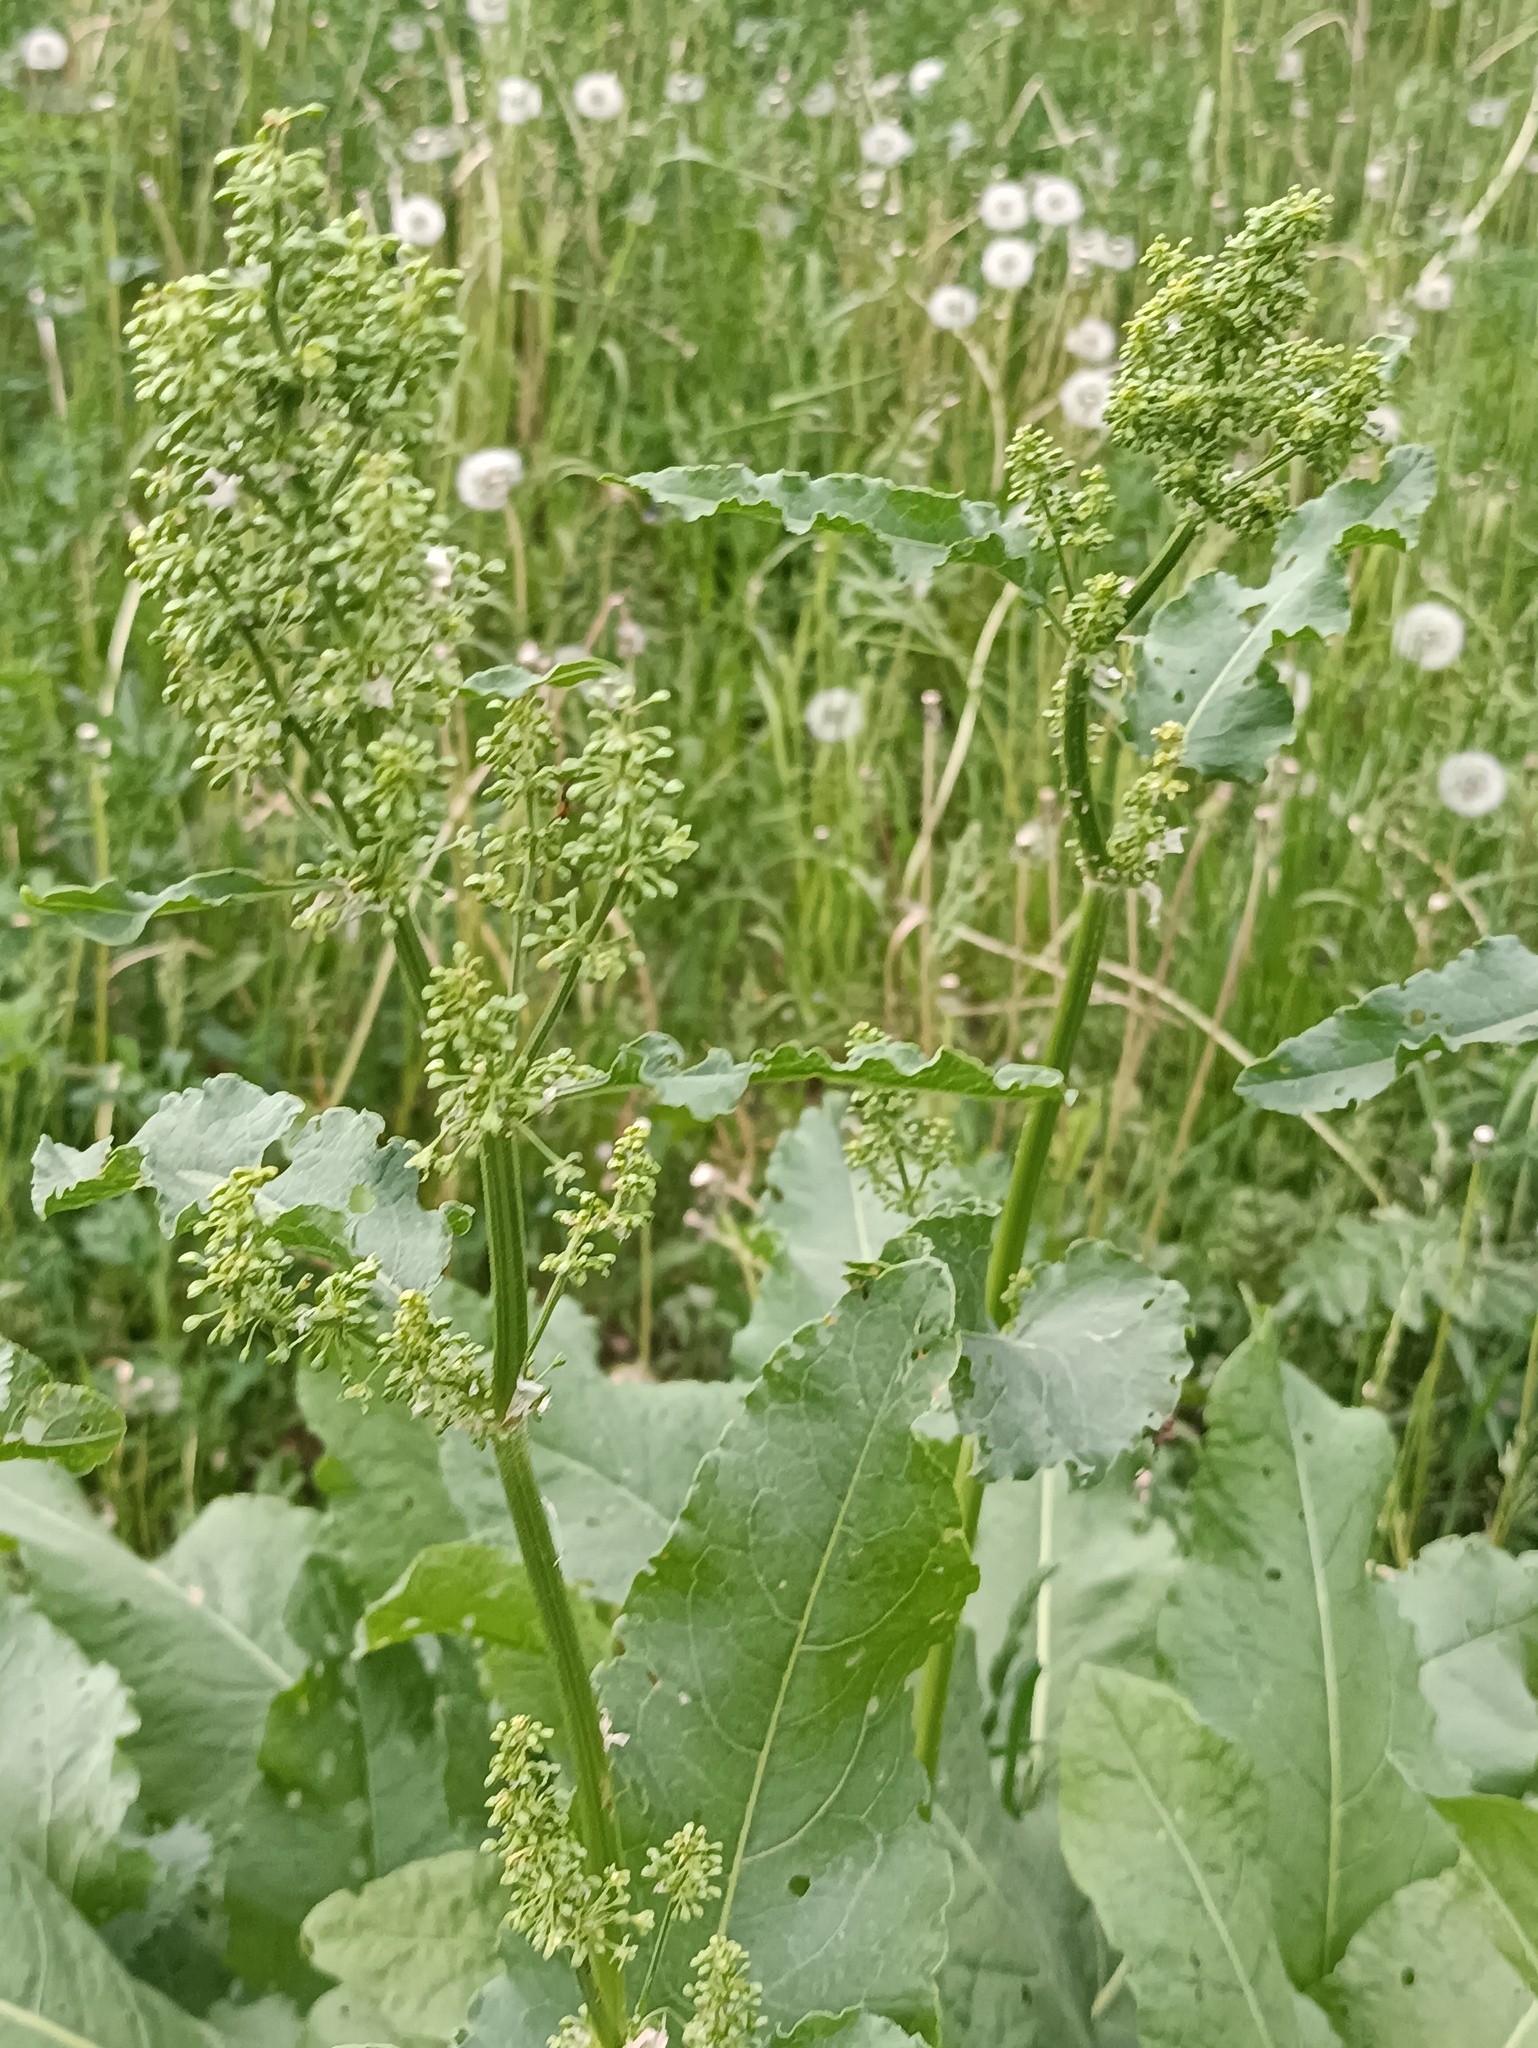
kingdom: Plantae
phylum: Tracheophyta
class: Magnoliopsida
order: Caryophyllales
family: Polygonaceae
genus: Rumex
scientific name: Rumex confertus
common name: Russian dock
